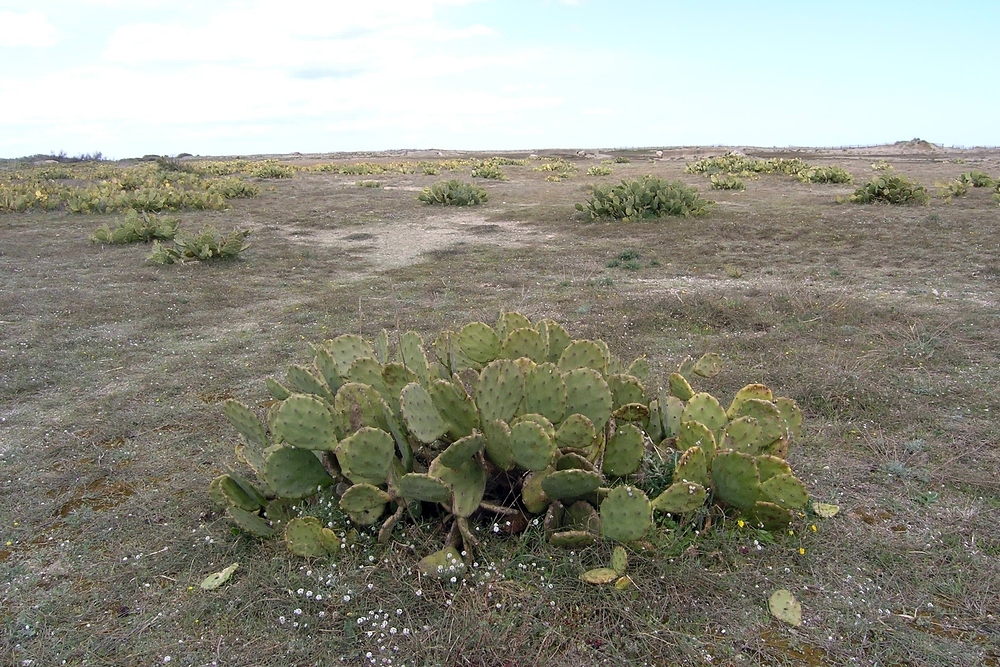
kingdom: Plantae
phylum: Tracheophyta
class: Magnoliopsida
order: Caryophyllales
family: Cactaceae
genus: Opuntia
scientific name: Opuntia anahuacensis
